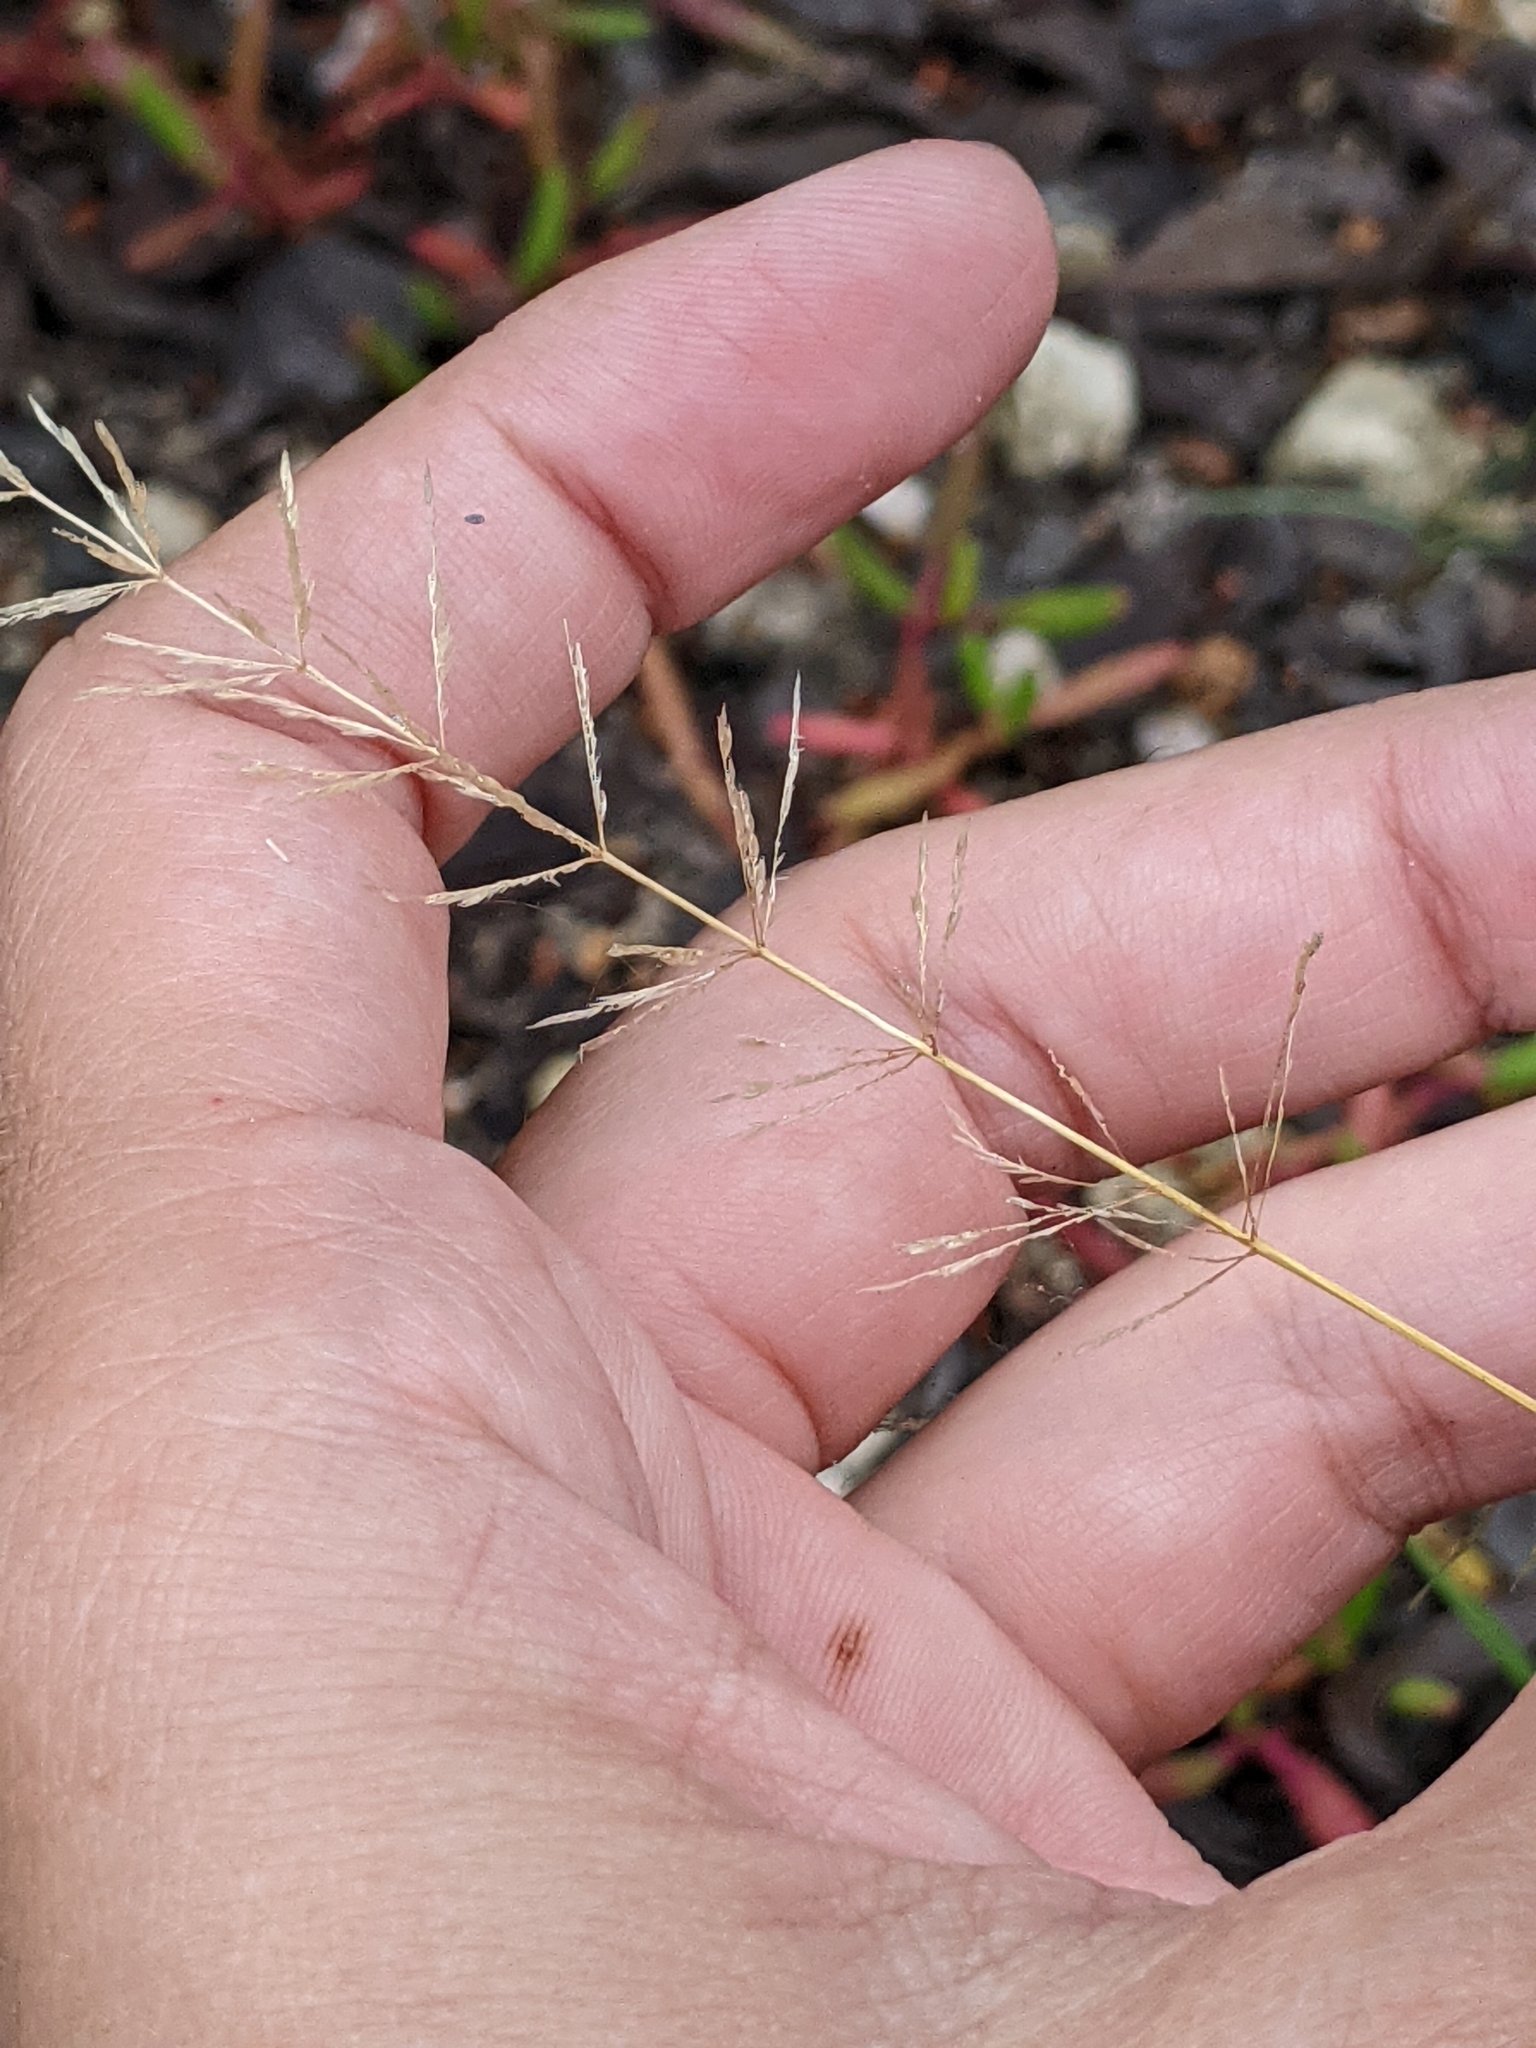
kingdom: Plantae
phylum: Tracheophyta
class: Liliopsida
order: Poales
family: Poaceae
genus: Sporobolus
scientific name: Sporobolus pyramidatus
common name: Whorled dropseed
